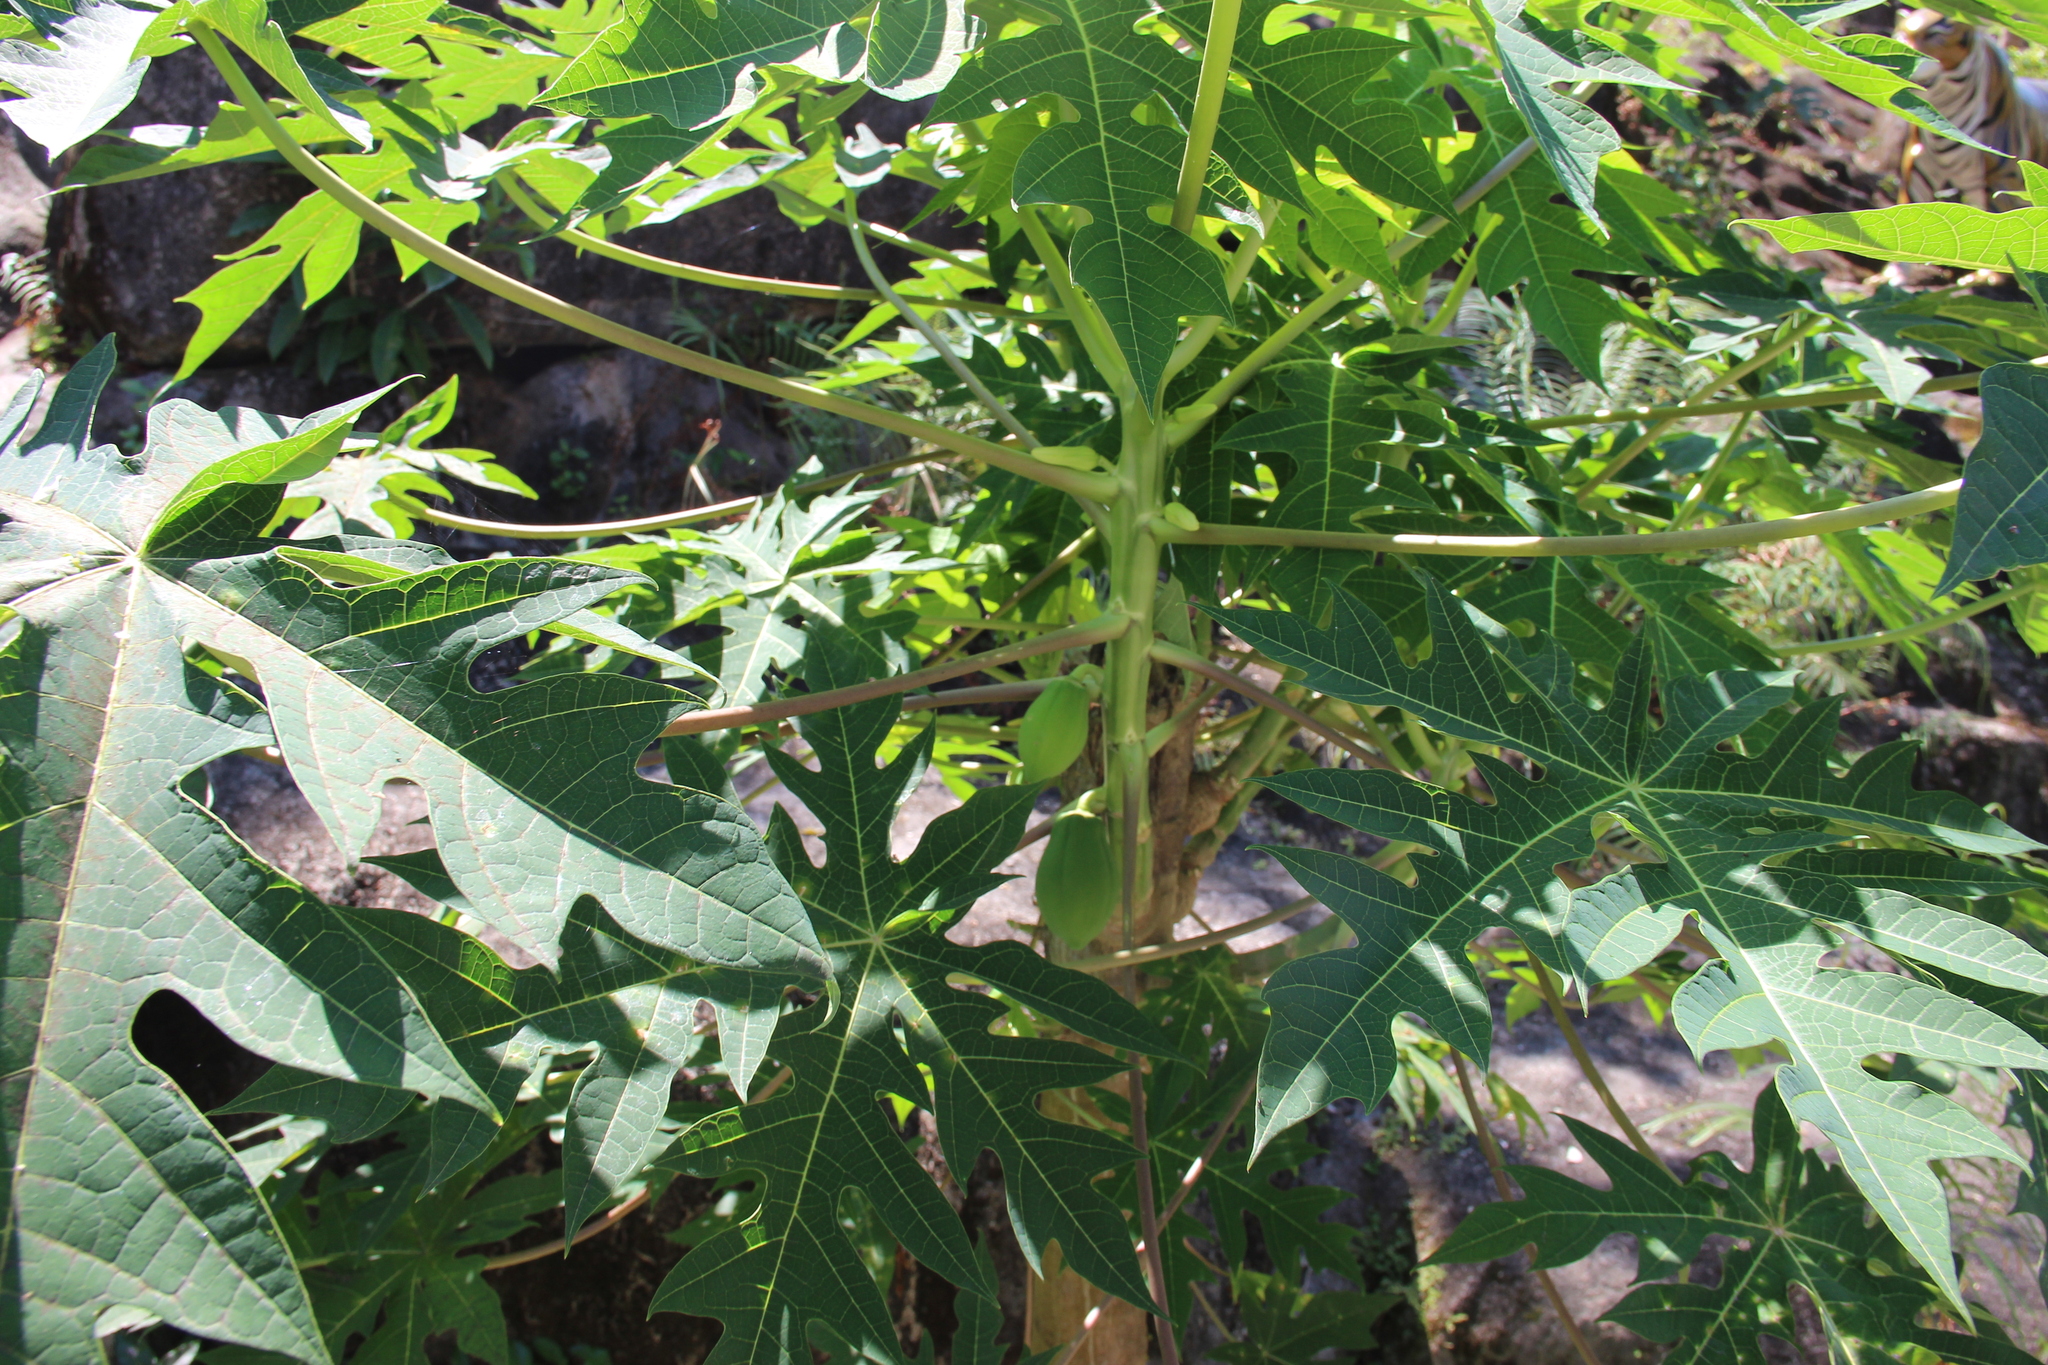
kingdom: Plantae
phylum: Tracheophyta
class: Magnoliopsida
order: Brassicales
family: Caricaceae
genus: Carica
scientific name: Carica papaya
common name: Papaya
